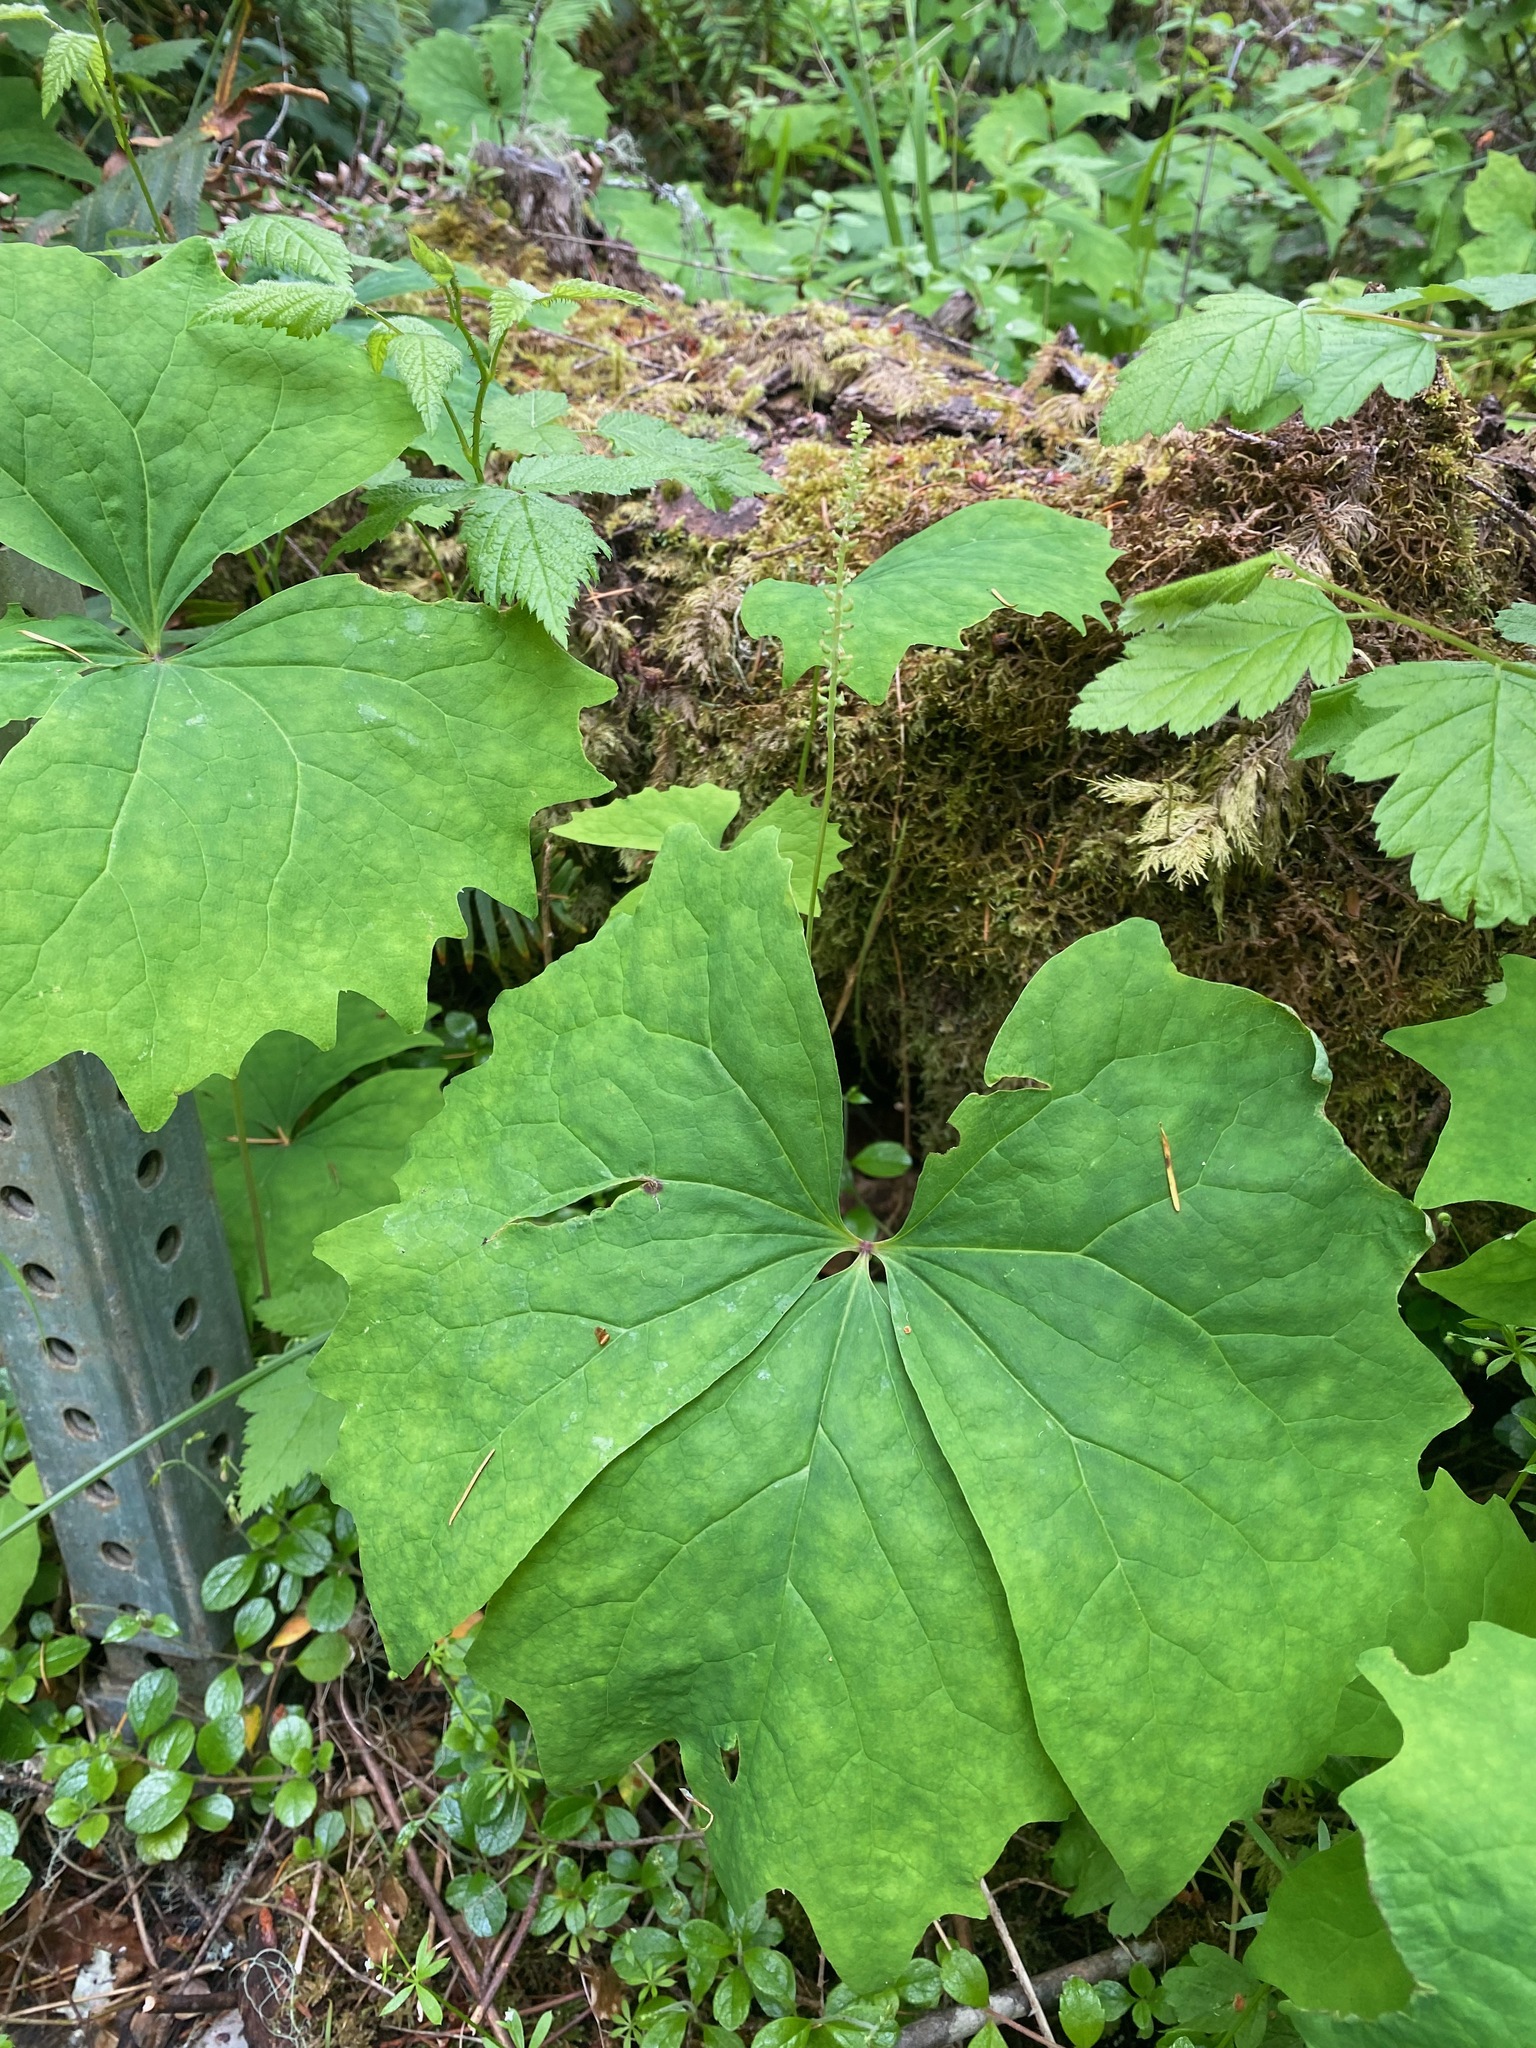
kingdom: Plantae
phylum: Tracheophyta
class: Magnoliopsida
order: Ranunculales
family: Berberidaceae
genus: Achlys
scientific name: Achlys triphylla
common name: Vanilla-leaf
